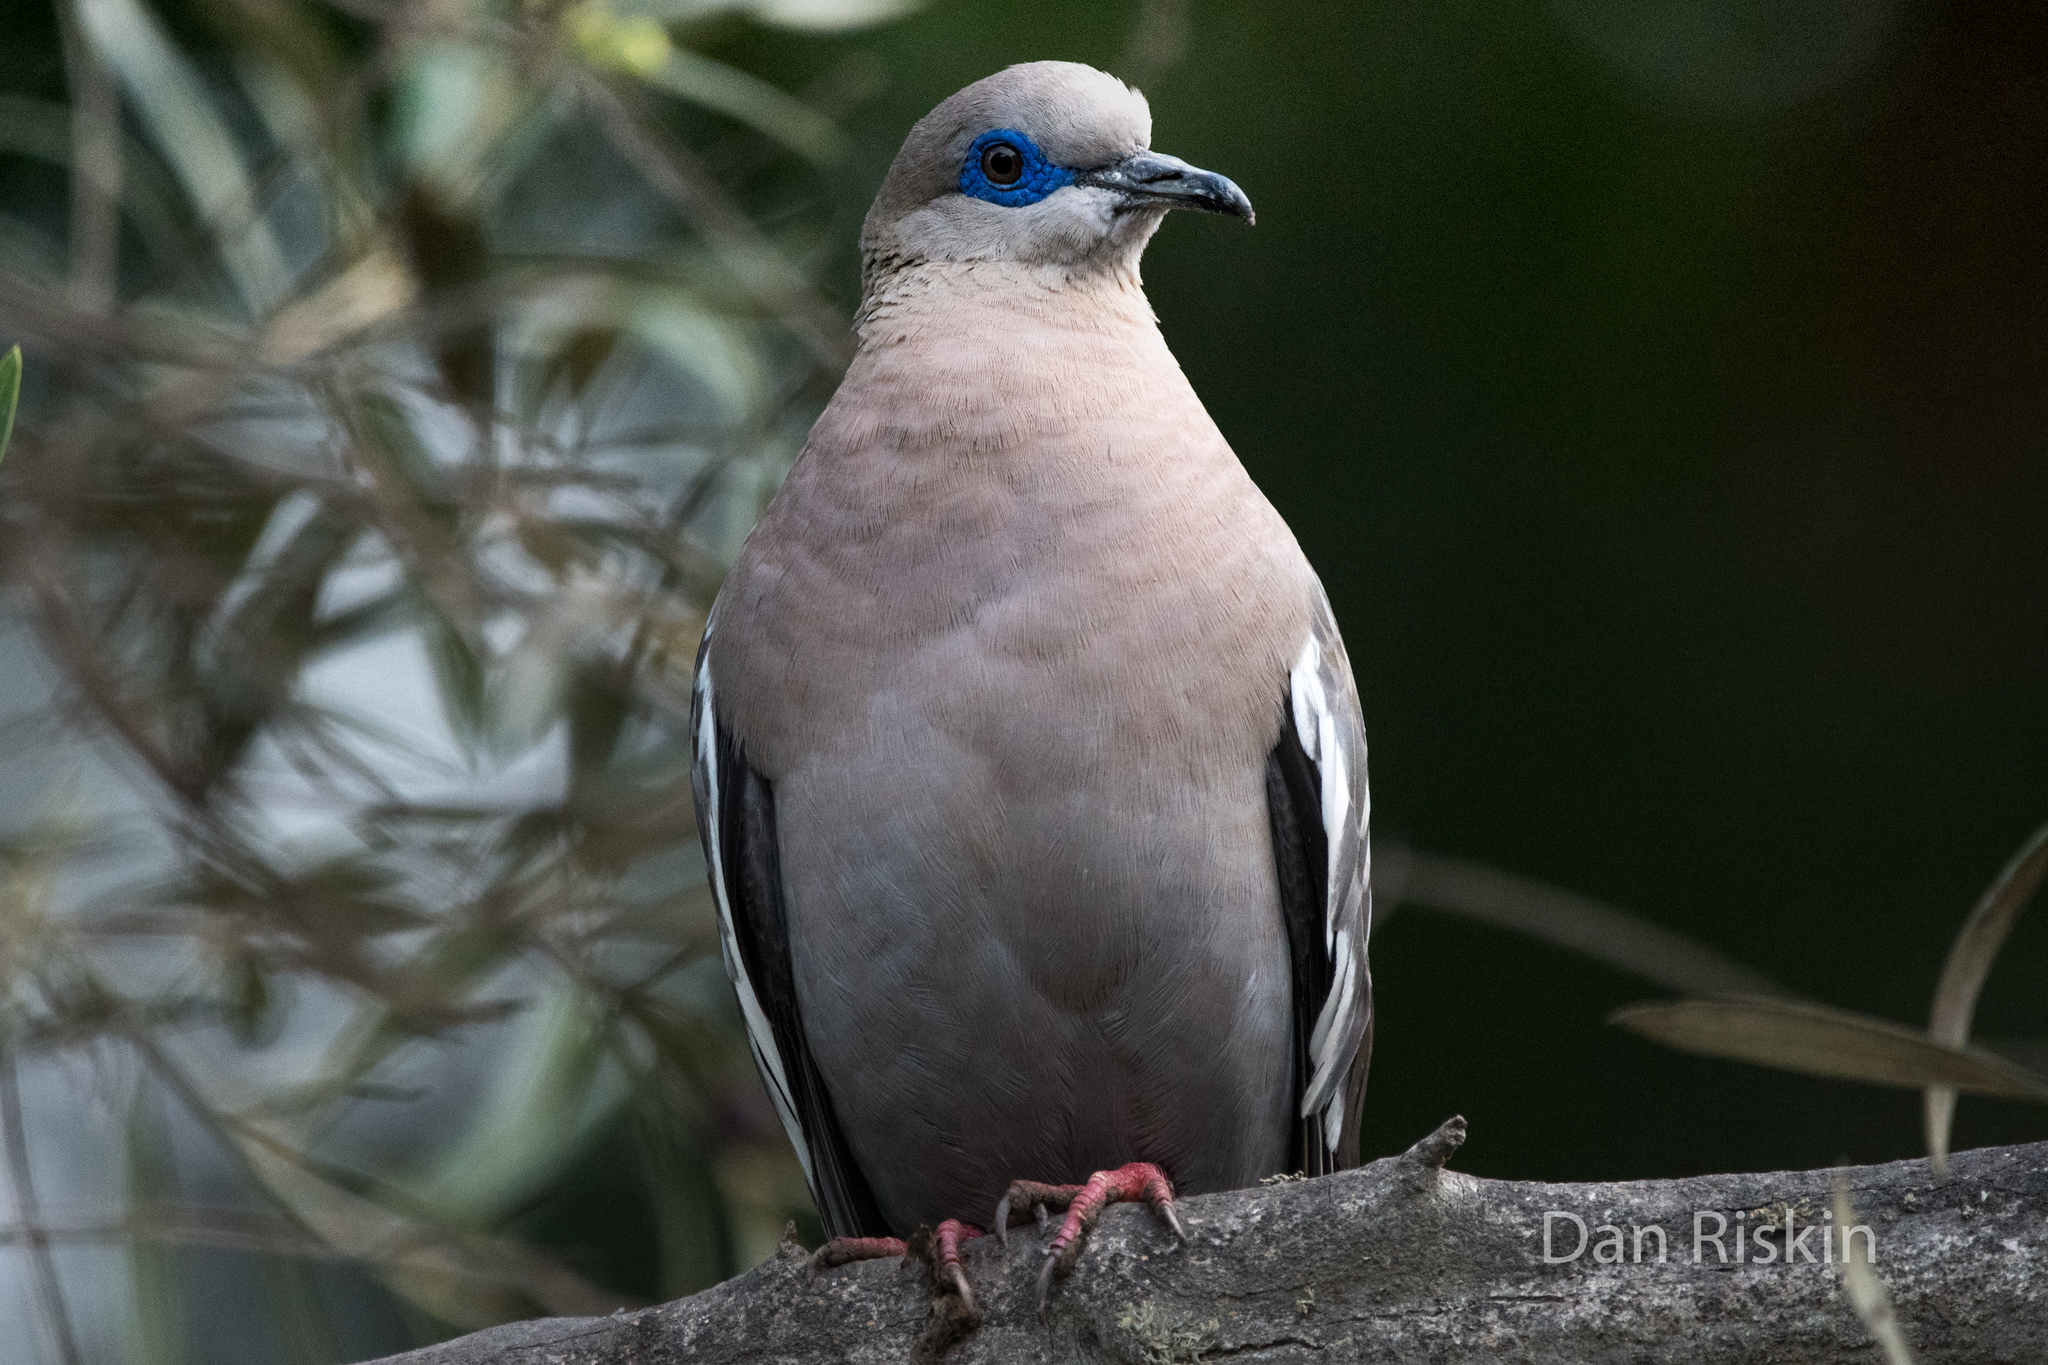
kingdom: Animalia
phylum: Chordata
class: Aves
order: Columbiformes
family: Columbidae
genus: Zenaida
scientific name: Zenaida meloda
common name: West peruvian dove
